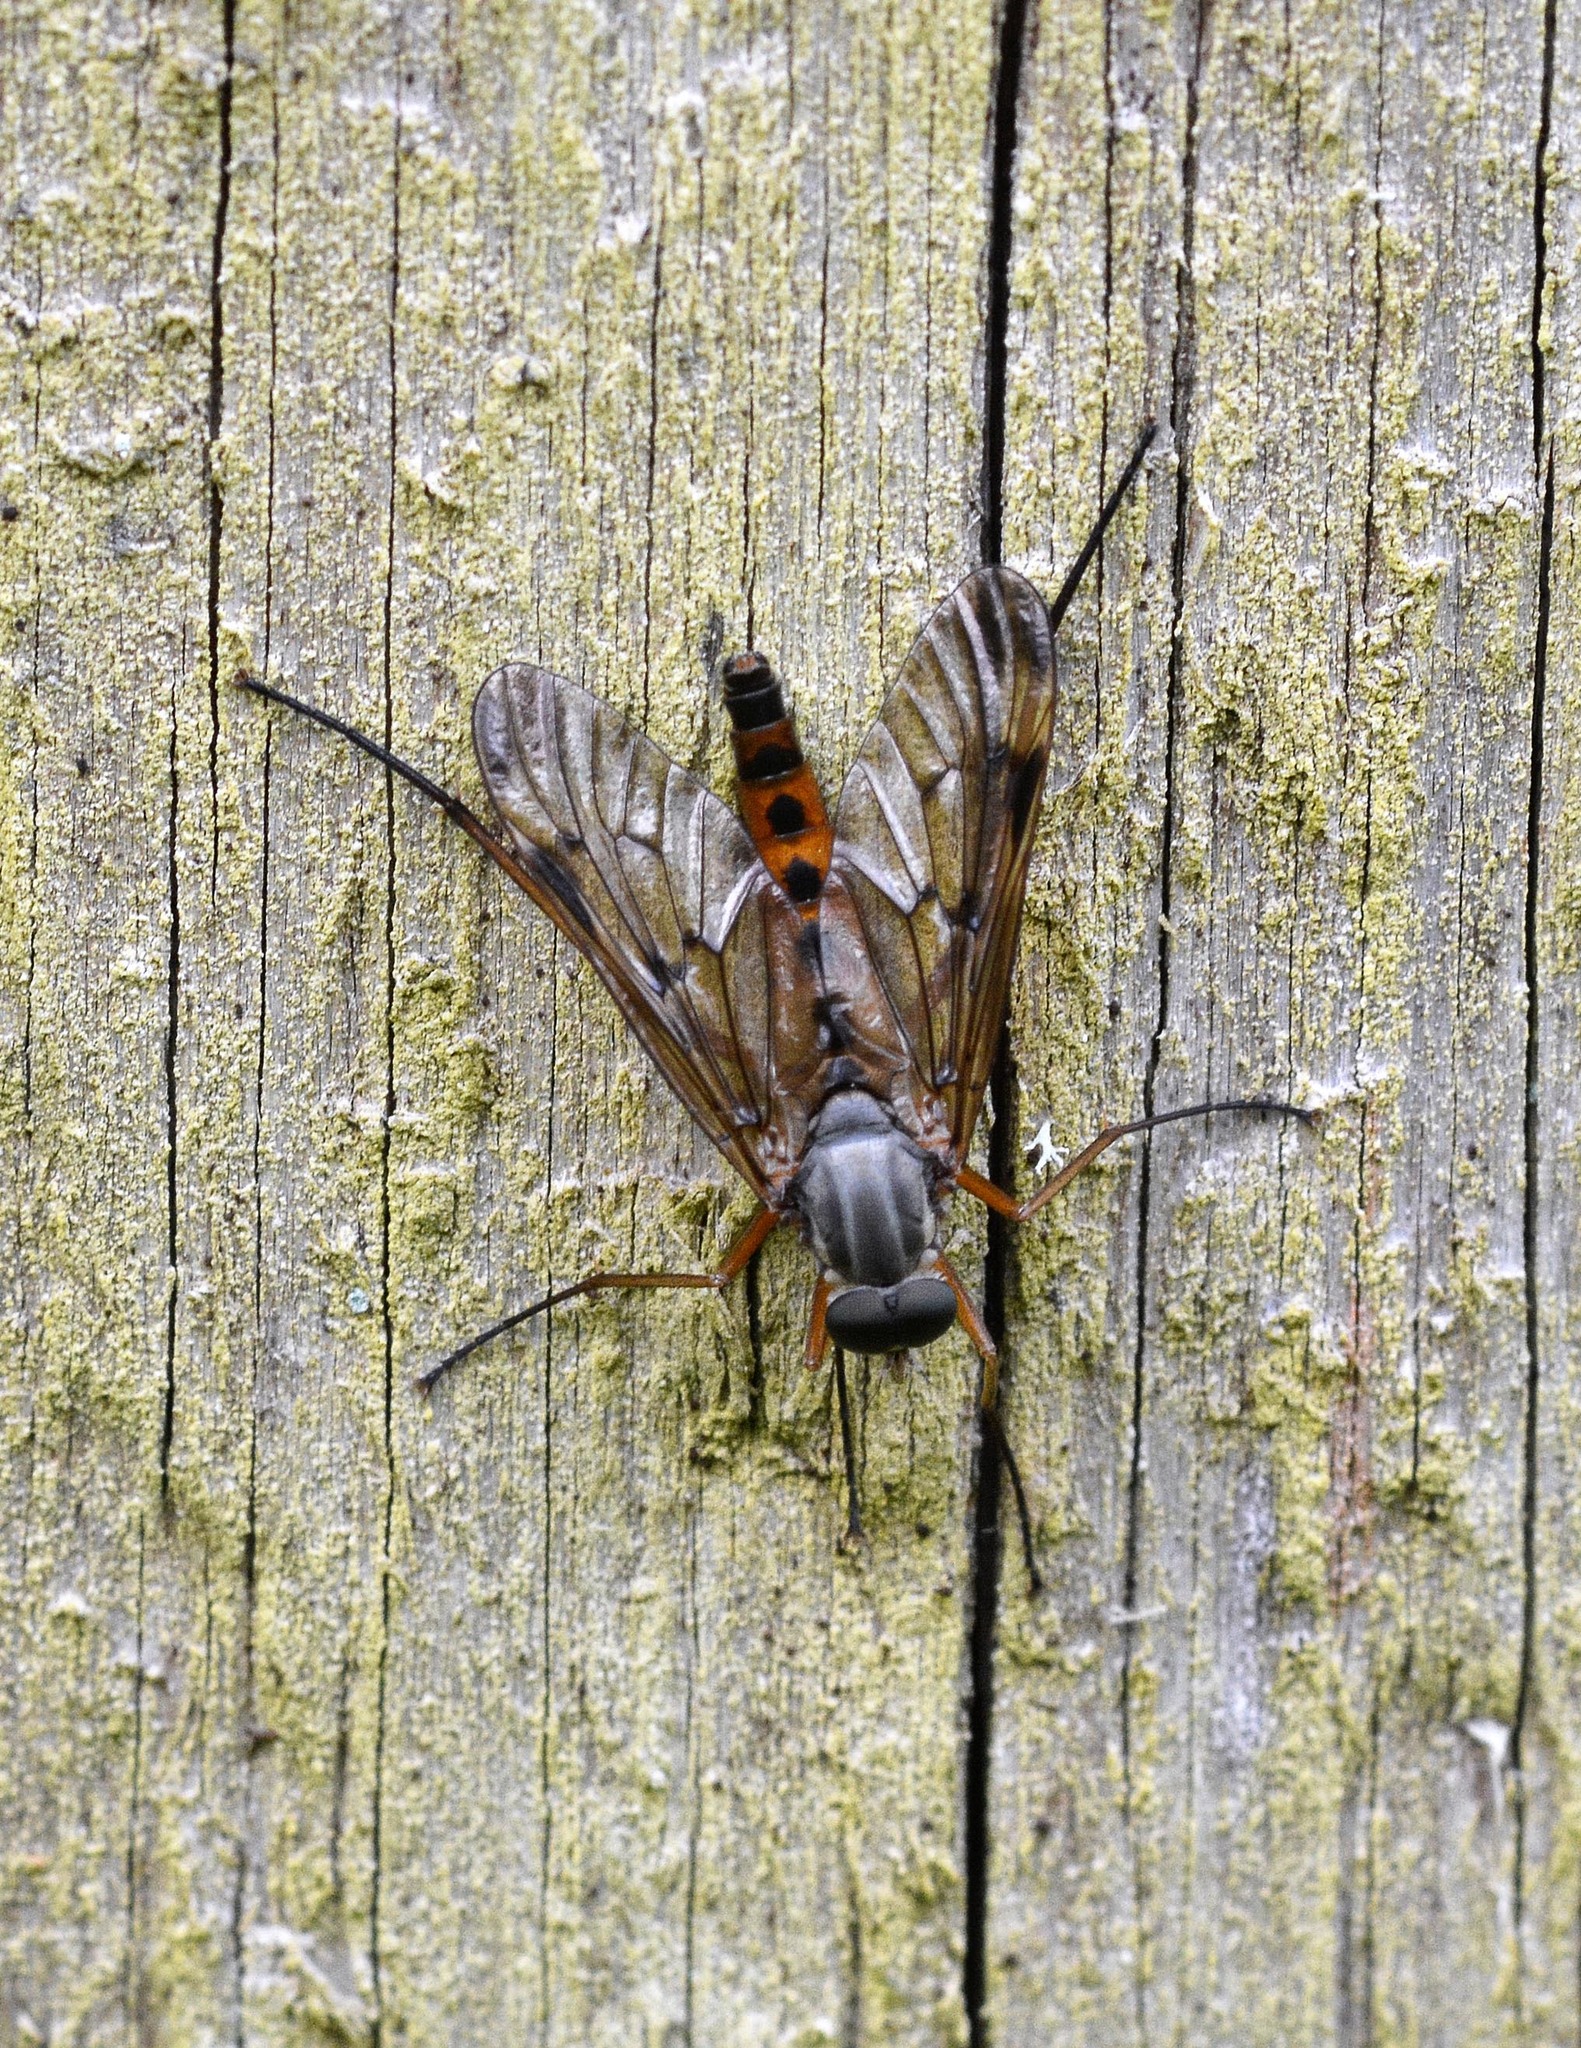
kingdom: Animalia
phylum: Arthropoda
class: Insecta
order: Diptera
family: Rhagionidae
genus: Rhagio
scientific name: Rhagio scolopacea
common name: Downlooker snipefly
